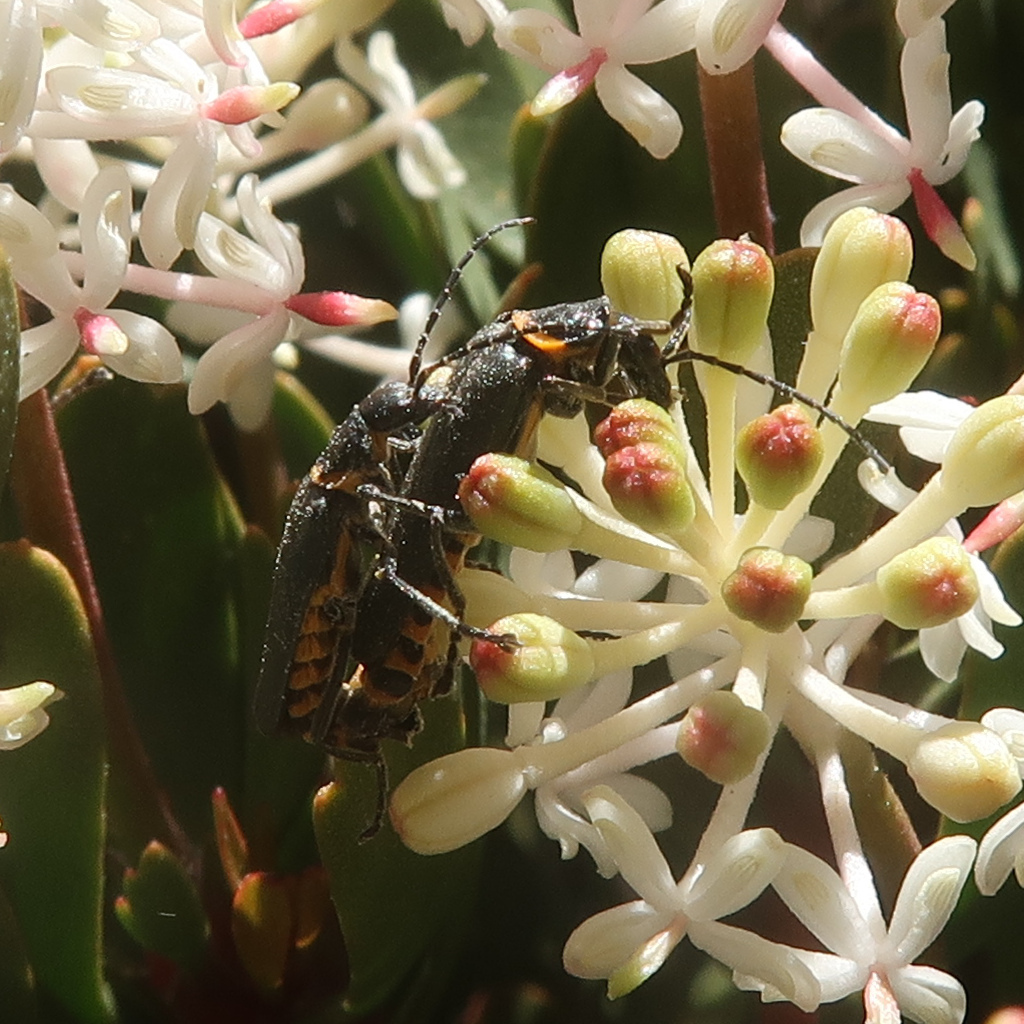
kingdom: Animalia
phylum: Arthropoda
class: Insecta
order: Coleoptera
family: Cantharidae
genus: Chauliognathus
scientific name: Chauliognathus
